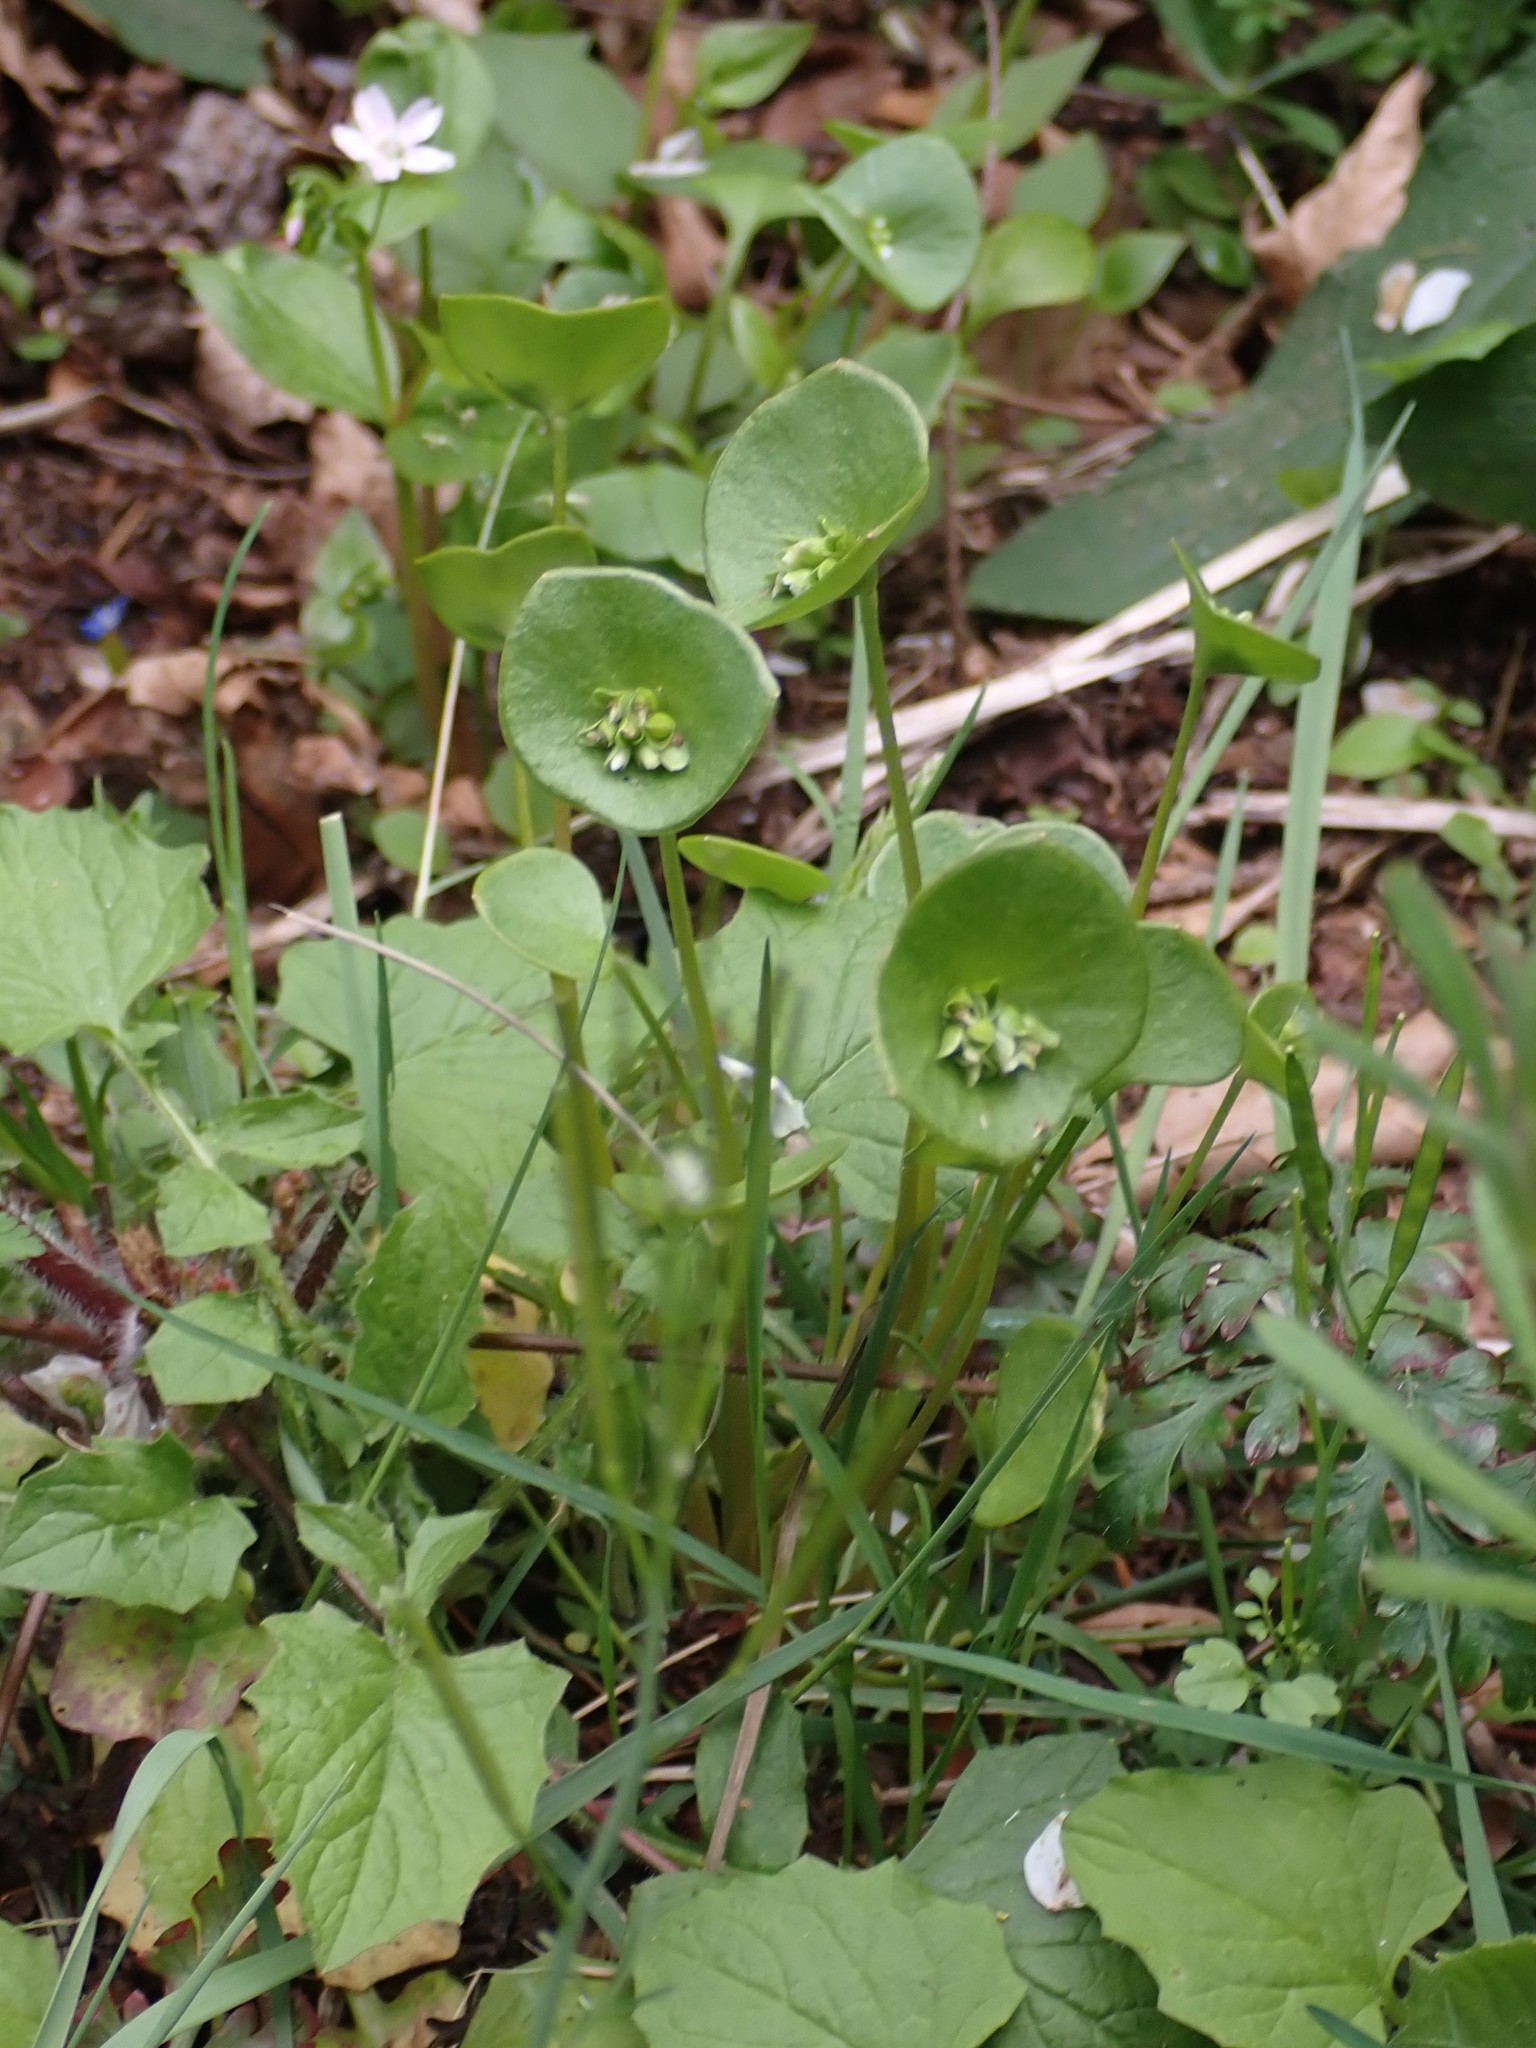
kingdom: Plantae
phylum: Tracheophyta
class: Magnoliopsida
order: Caryophyllales
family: Montiaceae
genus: Claytonia
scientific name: Claytonia perfoliata
